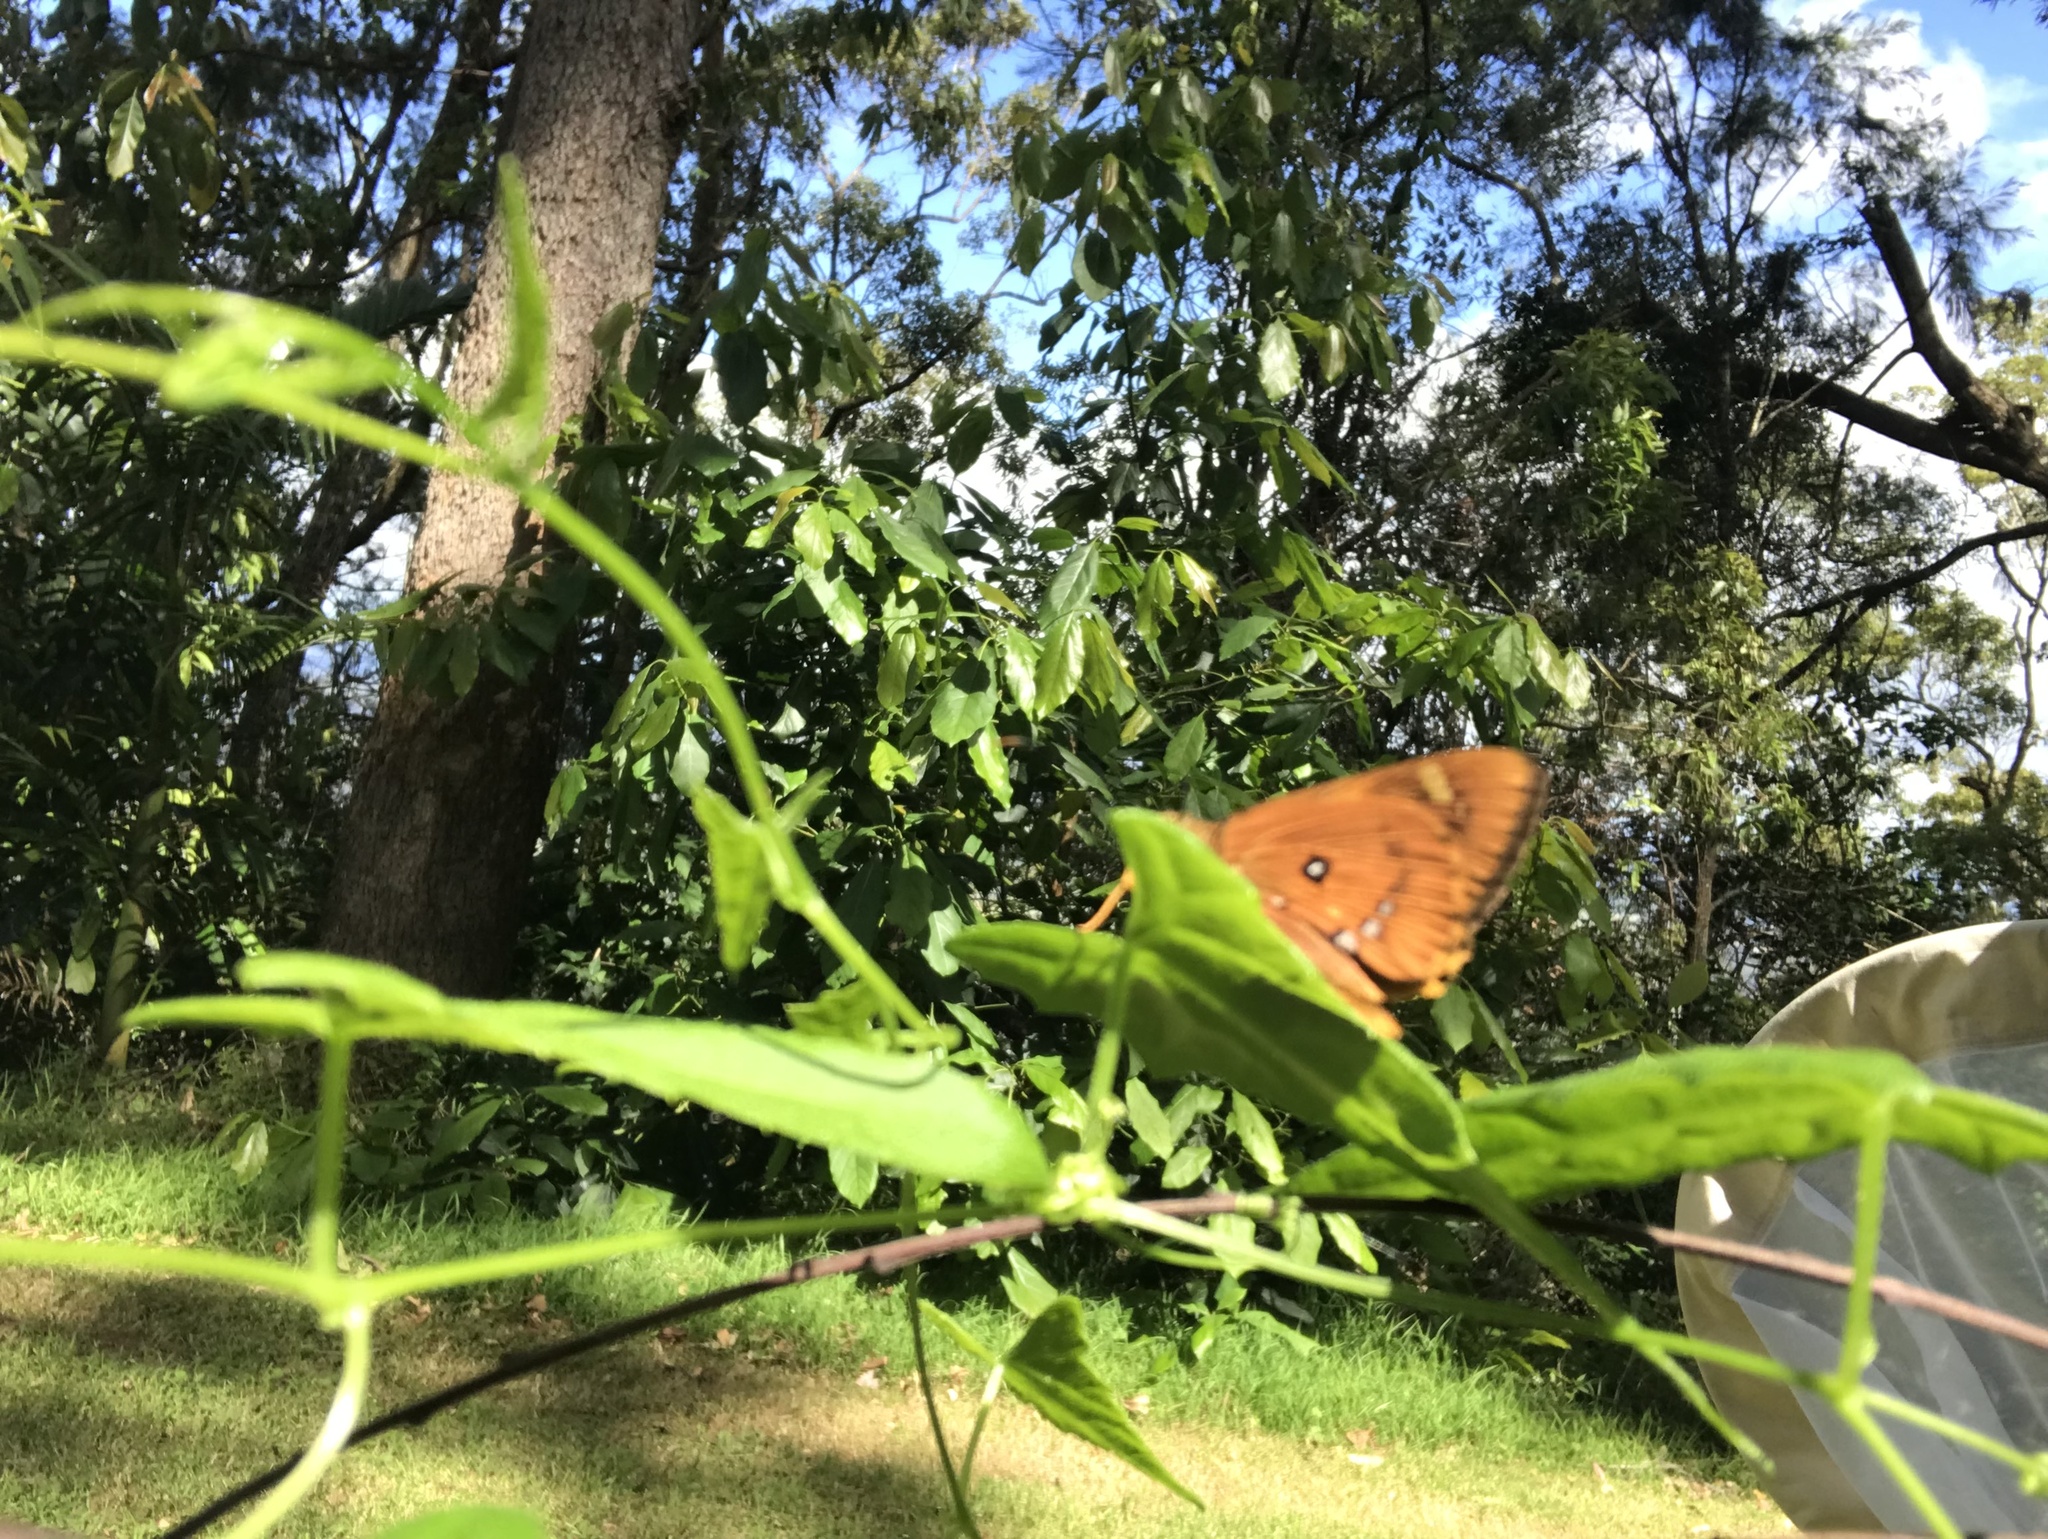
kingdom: Animalia
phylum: Arthropoda
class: Insecta
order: Lepidoptera
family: Hesperiidae
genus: Trapezites
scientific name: Trapezites symmomus
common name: Splendid ochre
